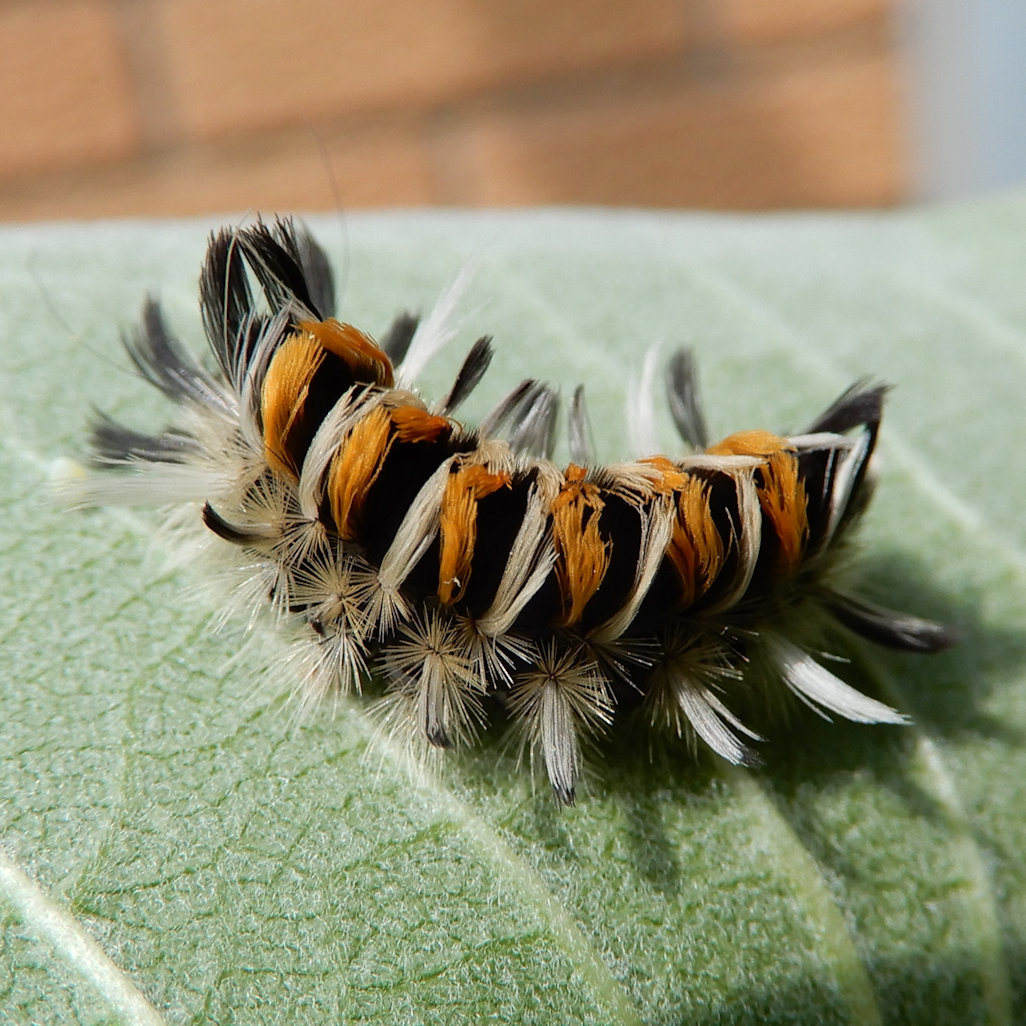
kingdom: Animalia
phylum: Arthropoda
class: Insecta
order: Lepidoptera
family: Erebidae
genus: Euchaetes
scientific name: Euchaetes egle
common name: Milkweed tussock moth
